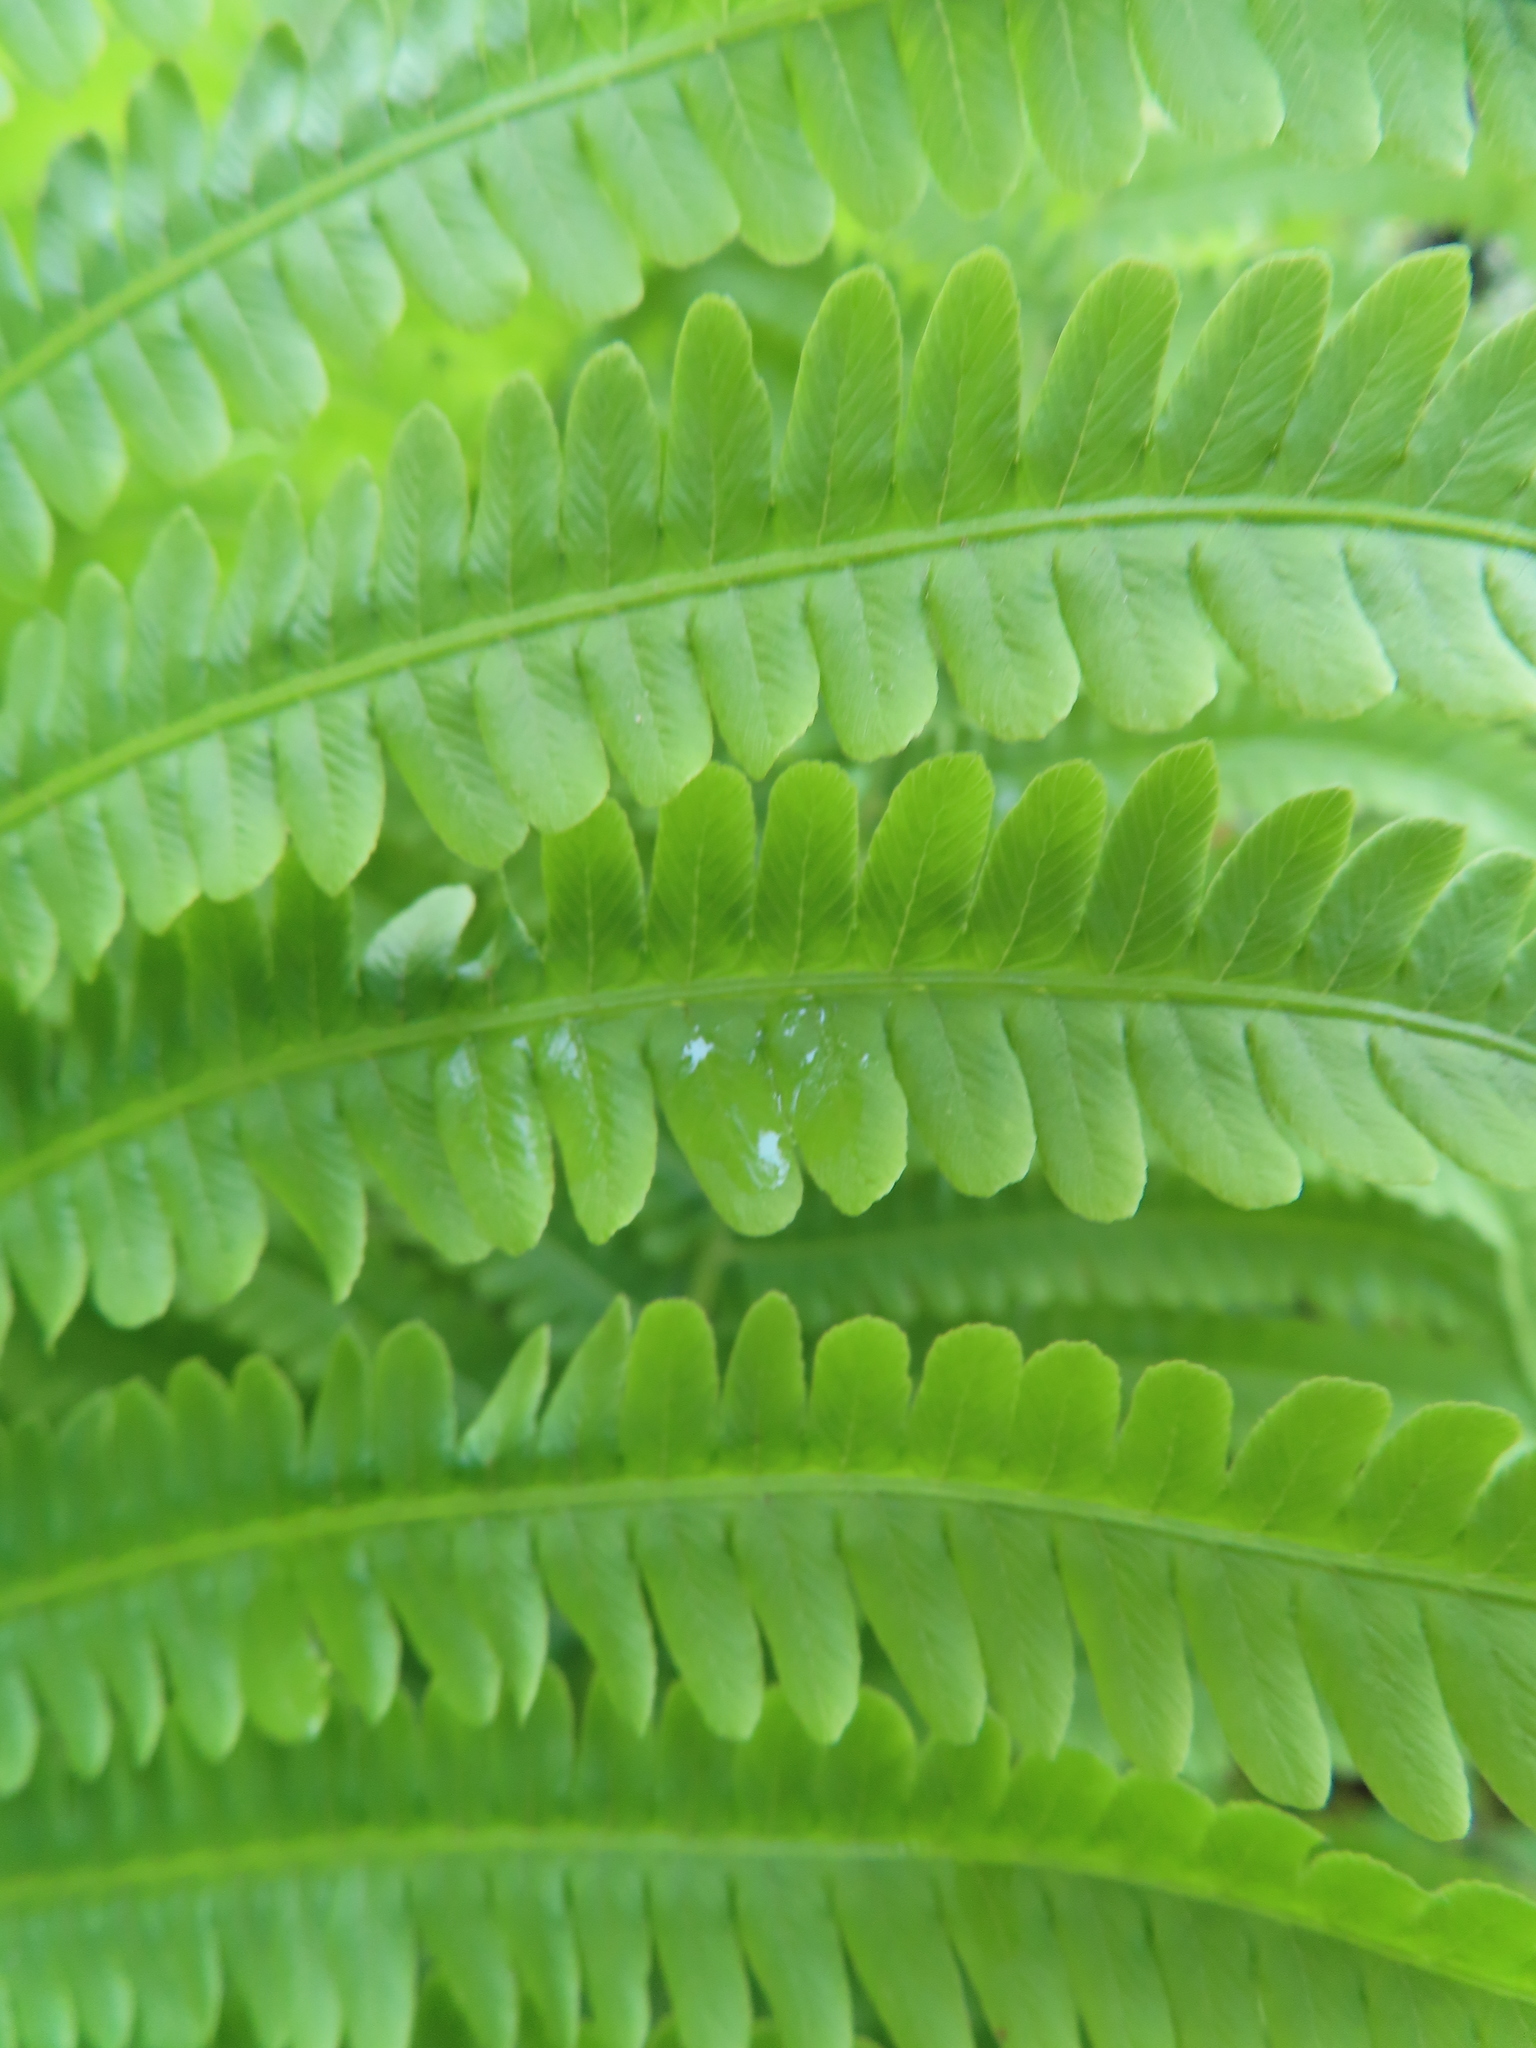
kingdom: Plantae
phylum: Tracheophyta
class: Polypodiopsida
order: Polypodiales
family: Onocleaceae
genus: Matteuccia
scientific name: Matteuccia struthiopteris
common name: Ostrich fern
